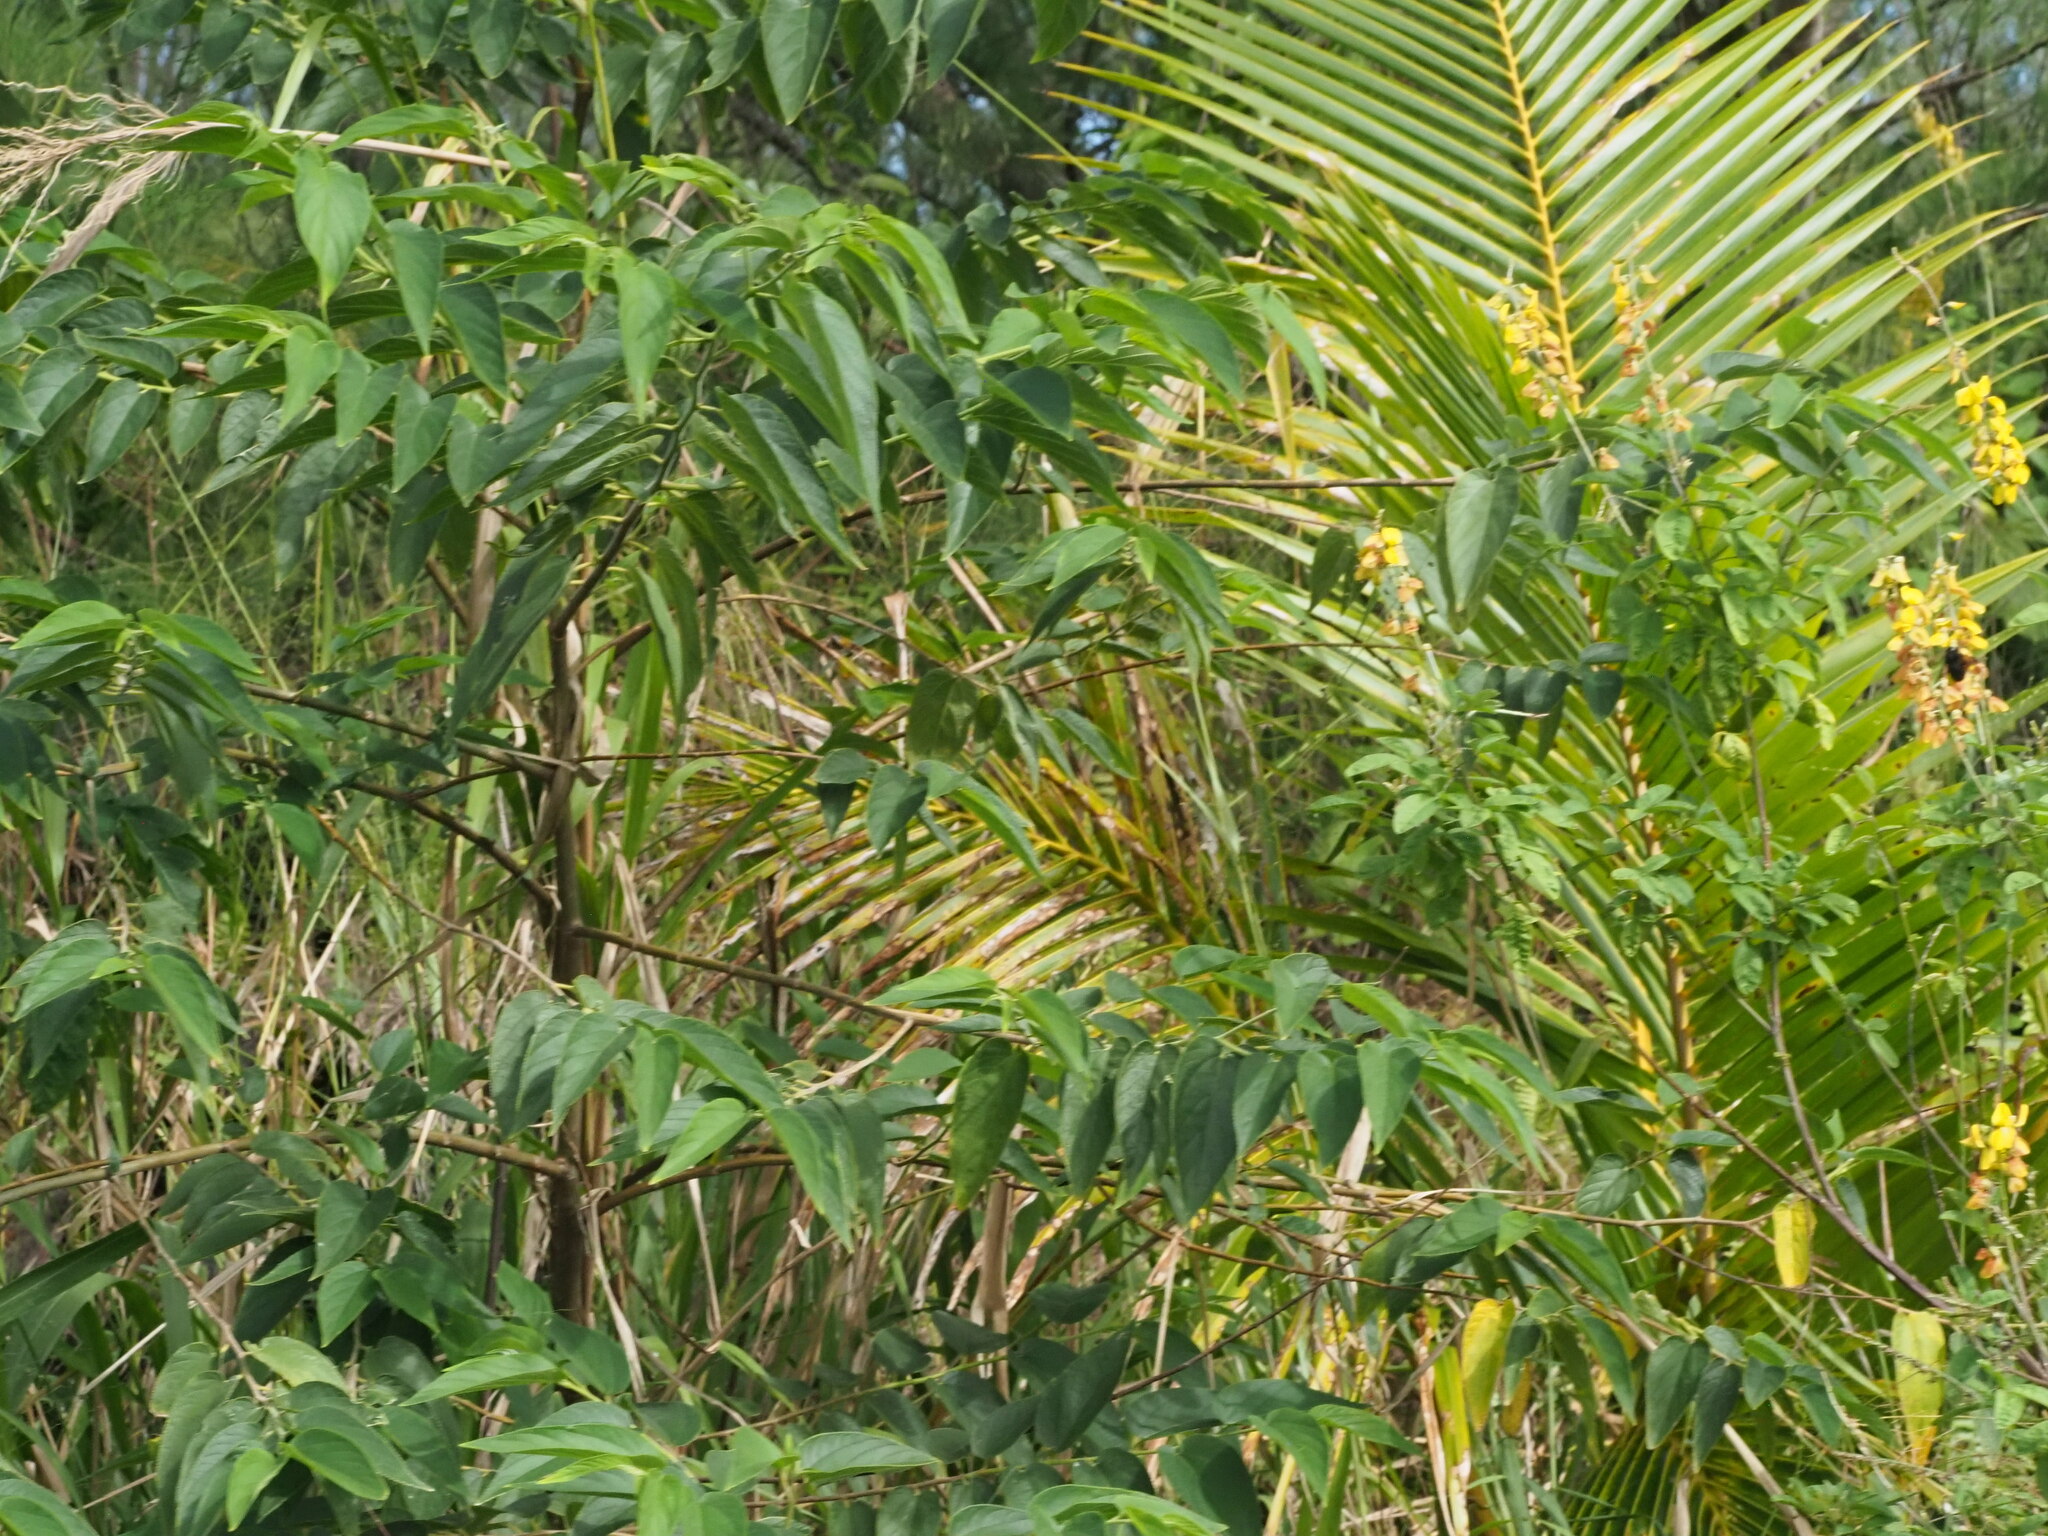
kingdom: Plantae
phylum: Tracheophyta
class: Magnoliopsida
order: Rosales
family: Cannabaceae
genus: Trema
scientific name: Trema orientale
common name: Indian charcoal tree
